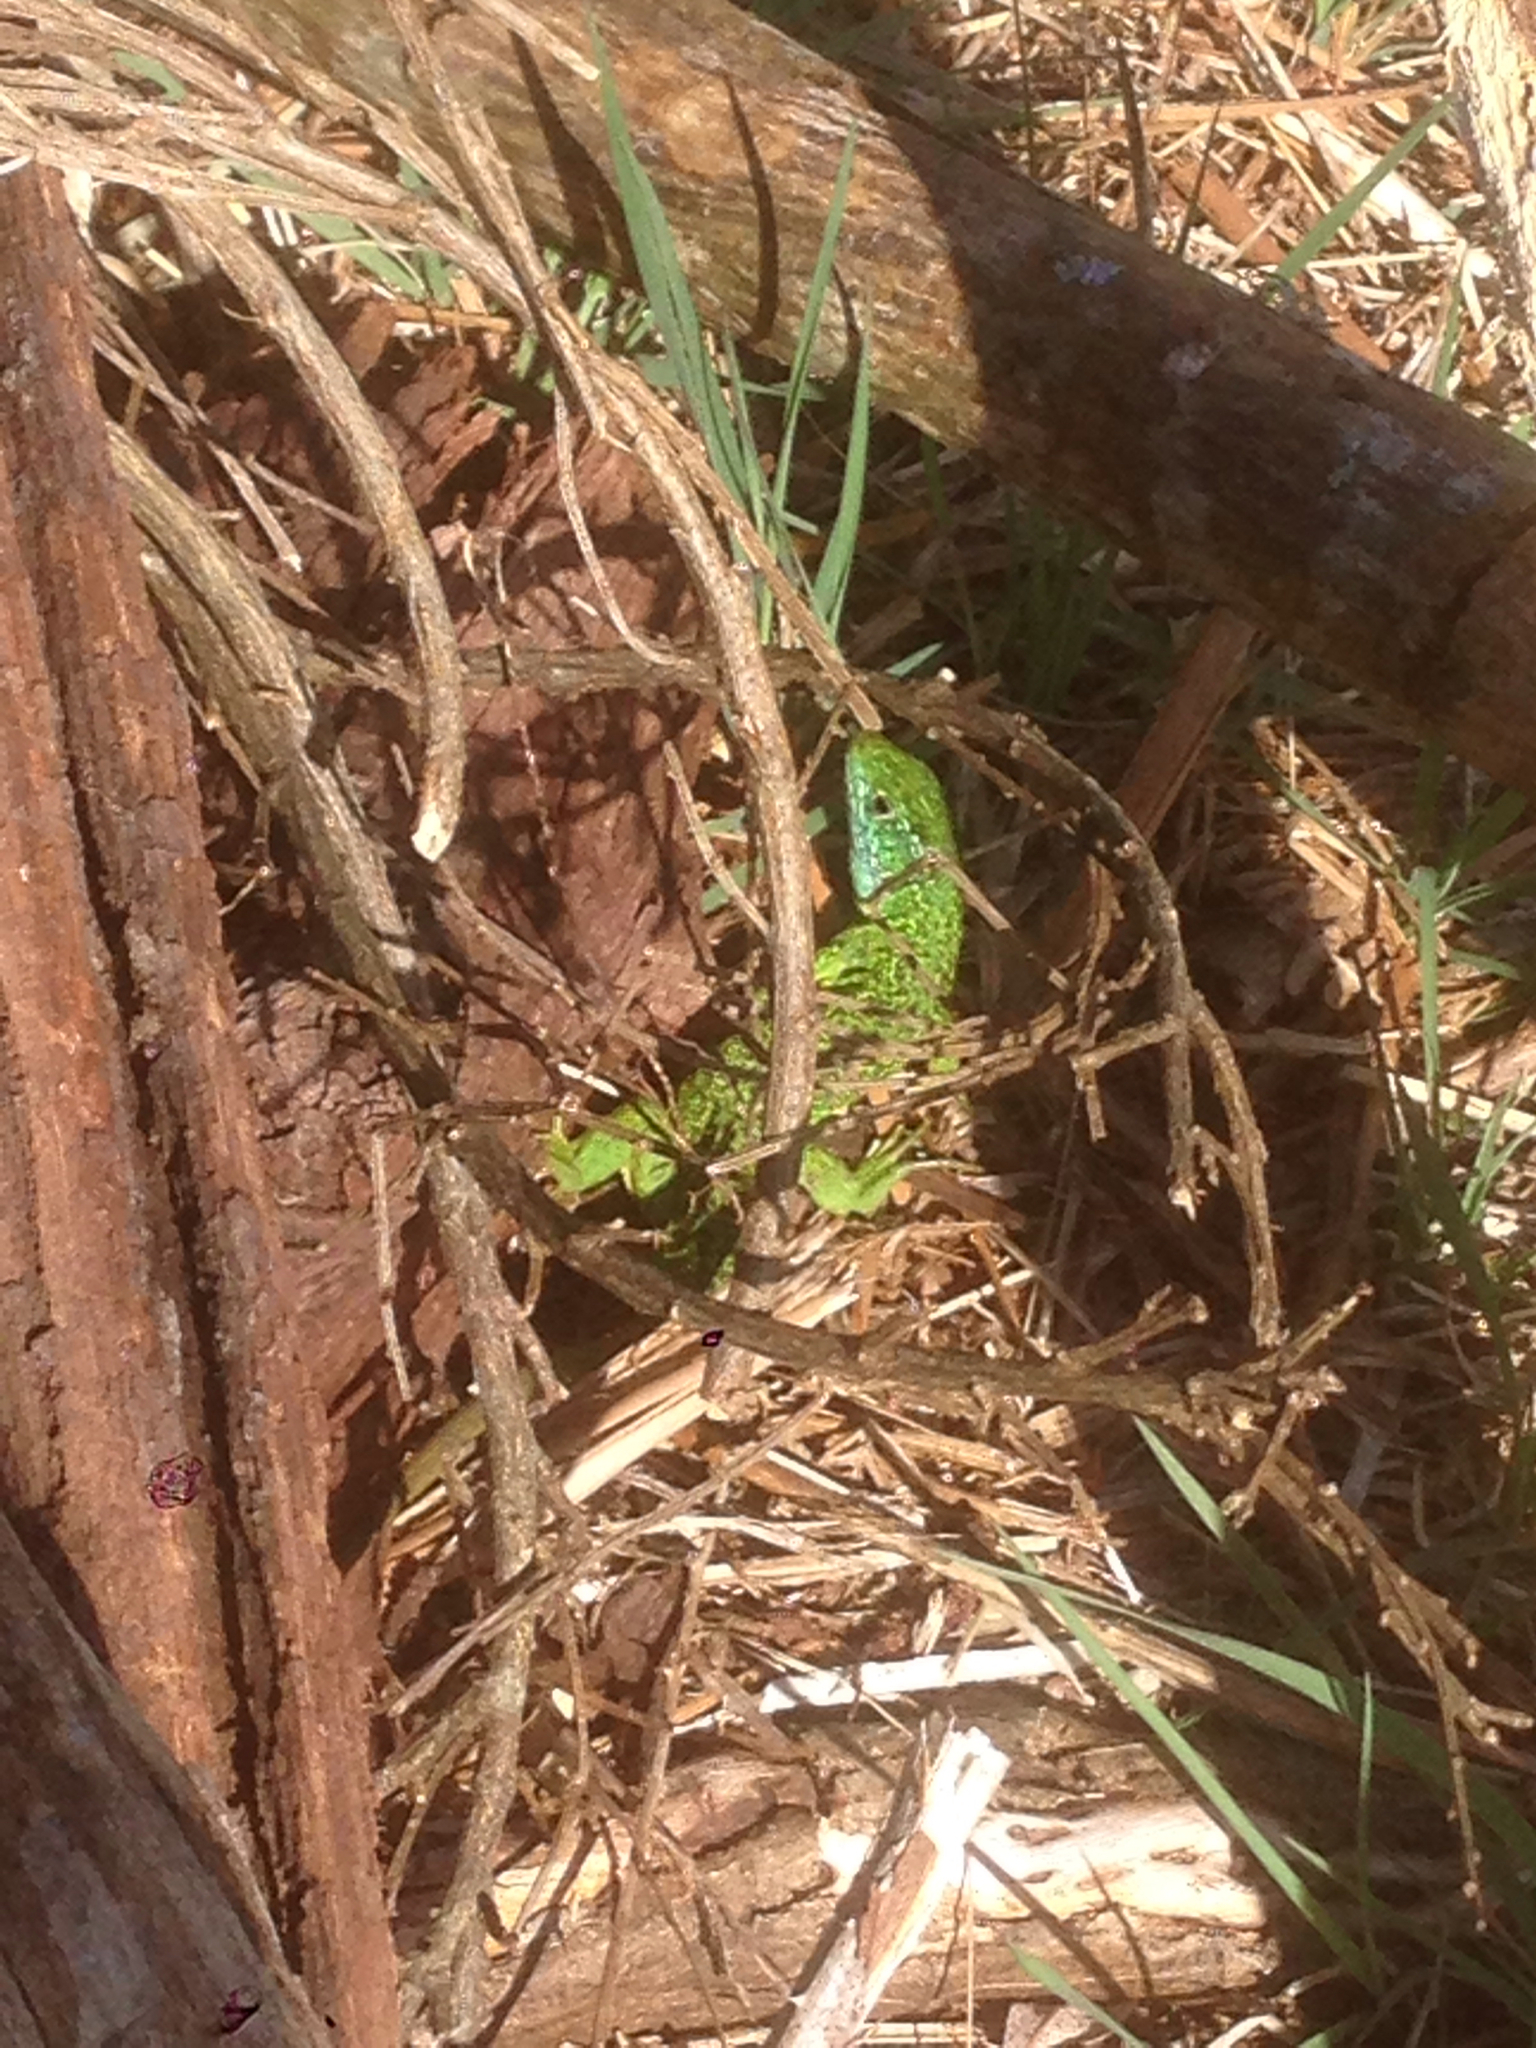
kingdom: Animalia
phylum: Chordata
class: Squamata
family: Lacertidae
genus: Lacerta
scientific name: Lacerta bilineata
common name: Western green lizard
